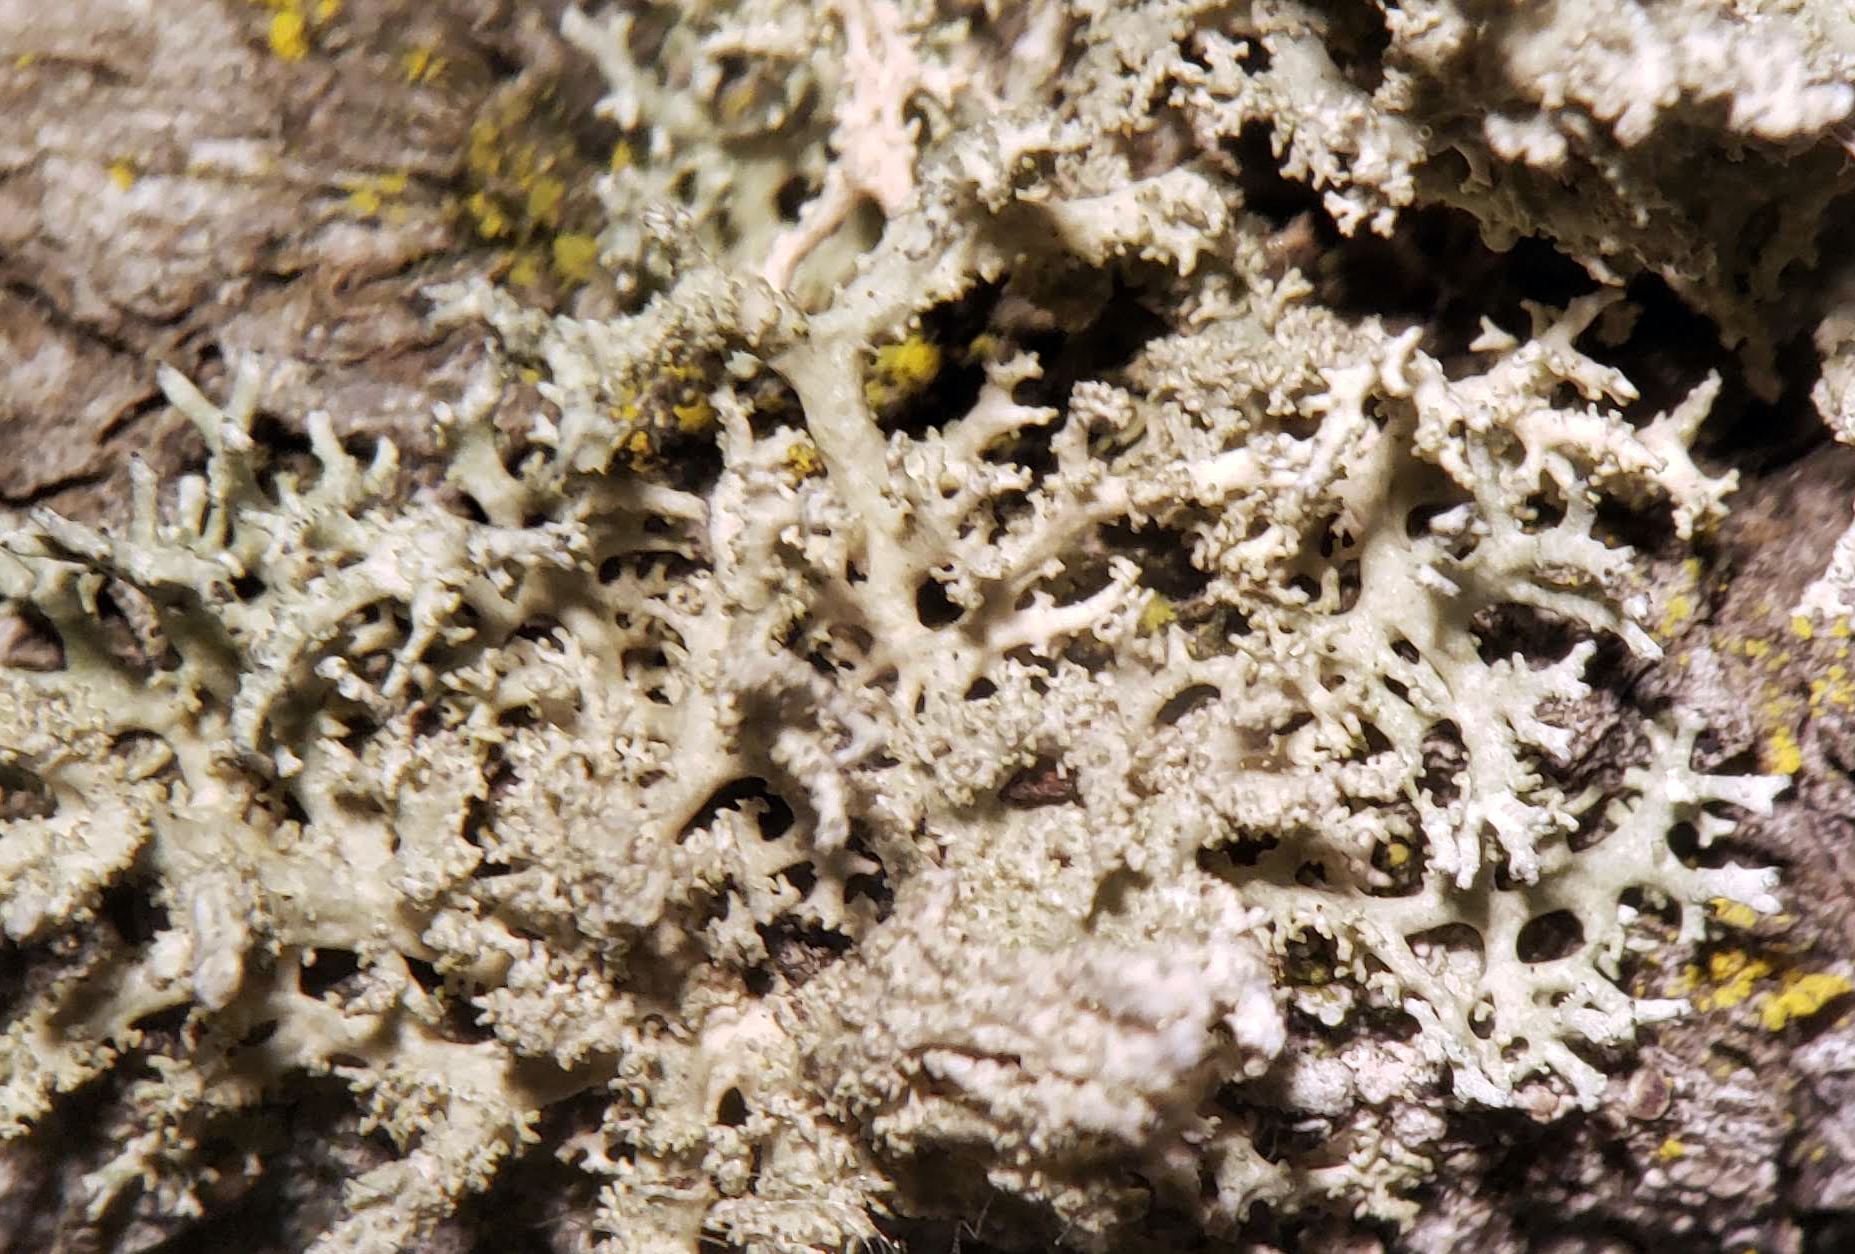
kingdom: Fungi
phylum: Ascomycota
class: Lecanoromycetes
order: Lecanorales
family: Parmeliaceae
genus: Evernia
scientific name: Evernia mesomorpha
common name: Boreal oak moss lichen
